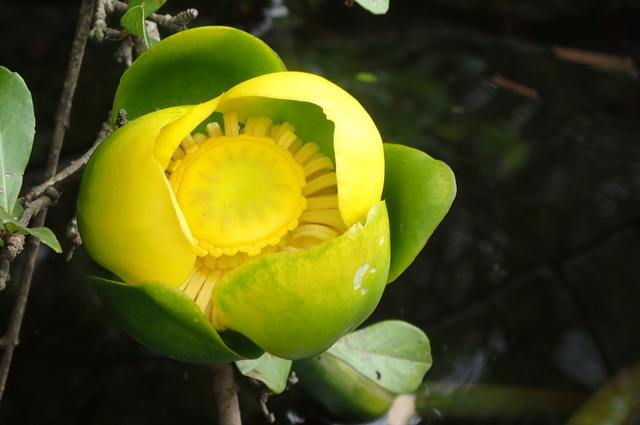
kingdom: Plantae
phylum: Tracheophyta
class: Magnoliopsida
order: Nymphaeales
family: Nymphaeaceae
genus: Nuphar
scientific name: Nuphar advena
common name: Spatter-dock
